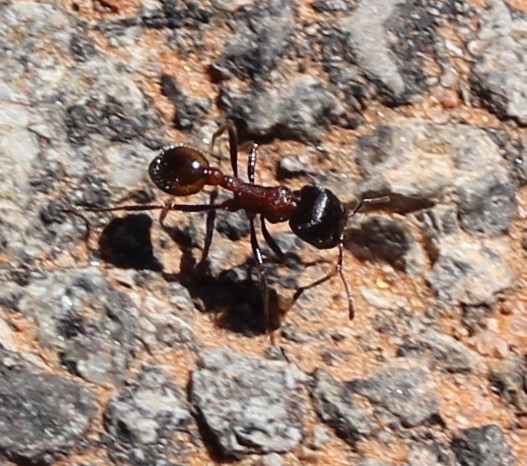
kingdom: Animalia
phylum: Arthropoda
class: Insecta
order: Hymenoptera
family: Formicidae
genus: Pogonomyrmex
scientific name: Pogonomyrmex rugosus
